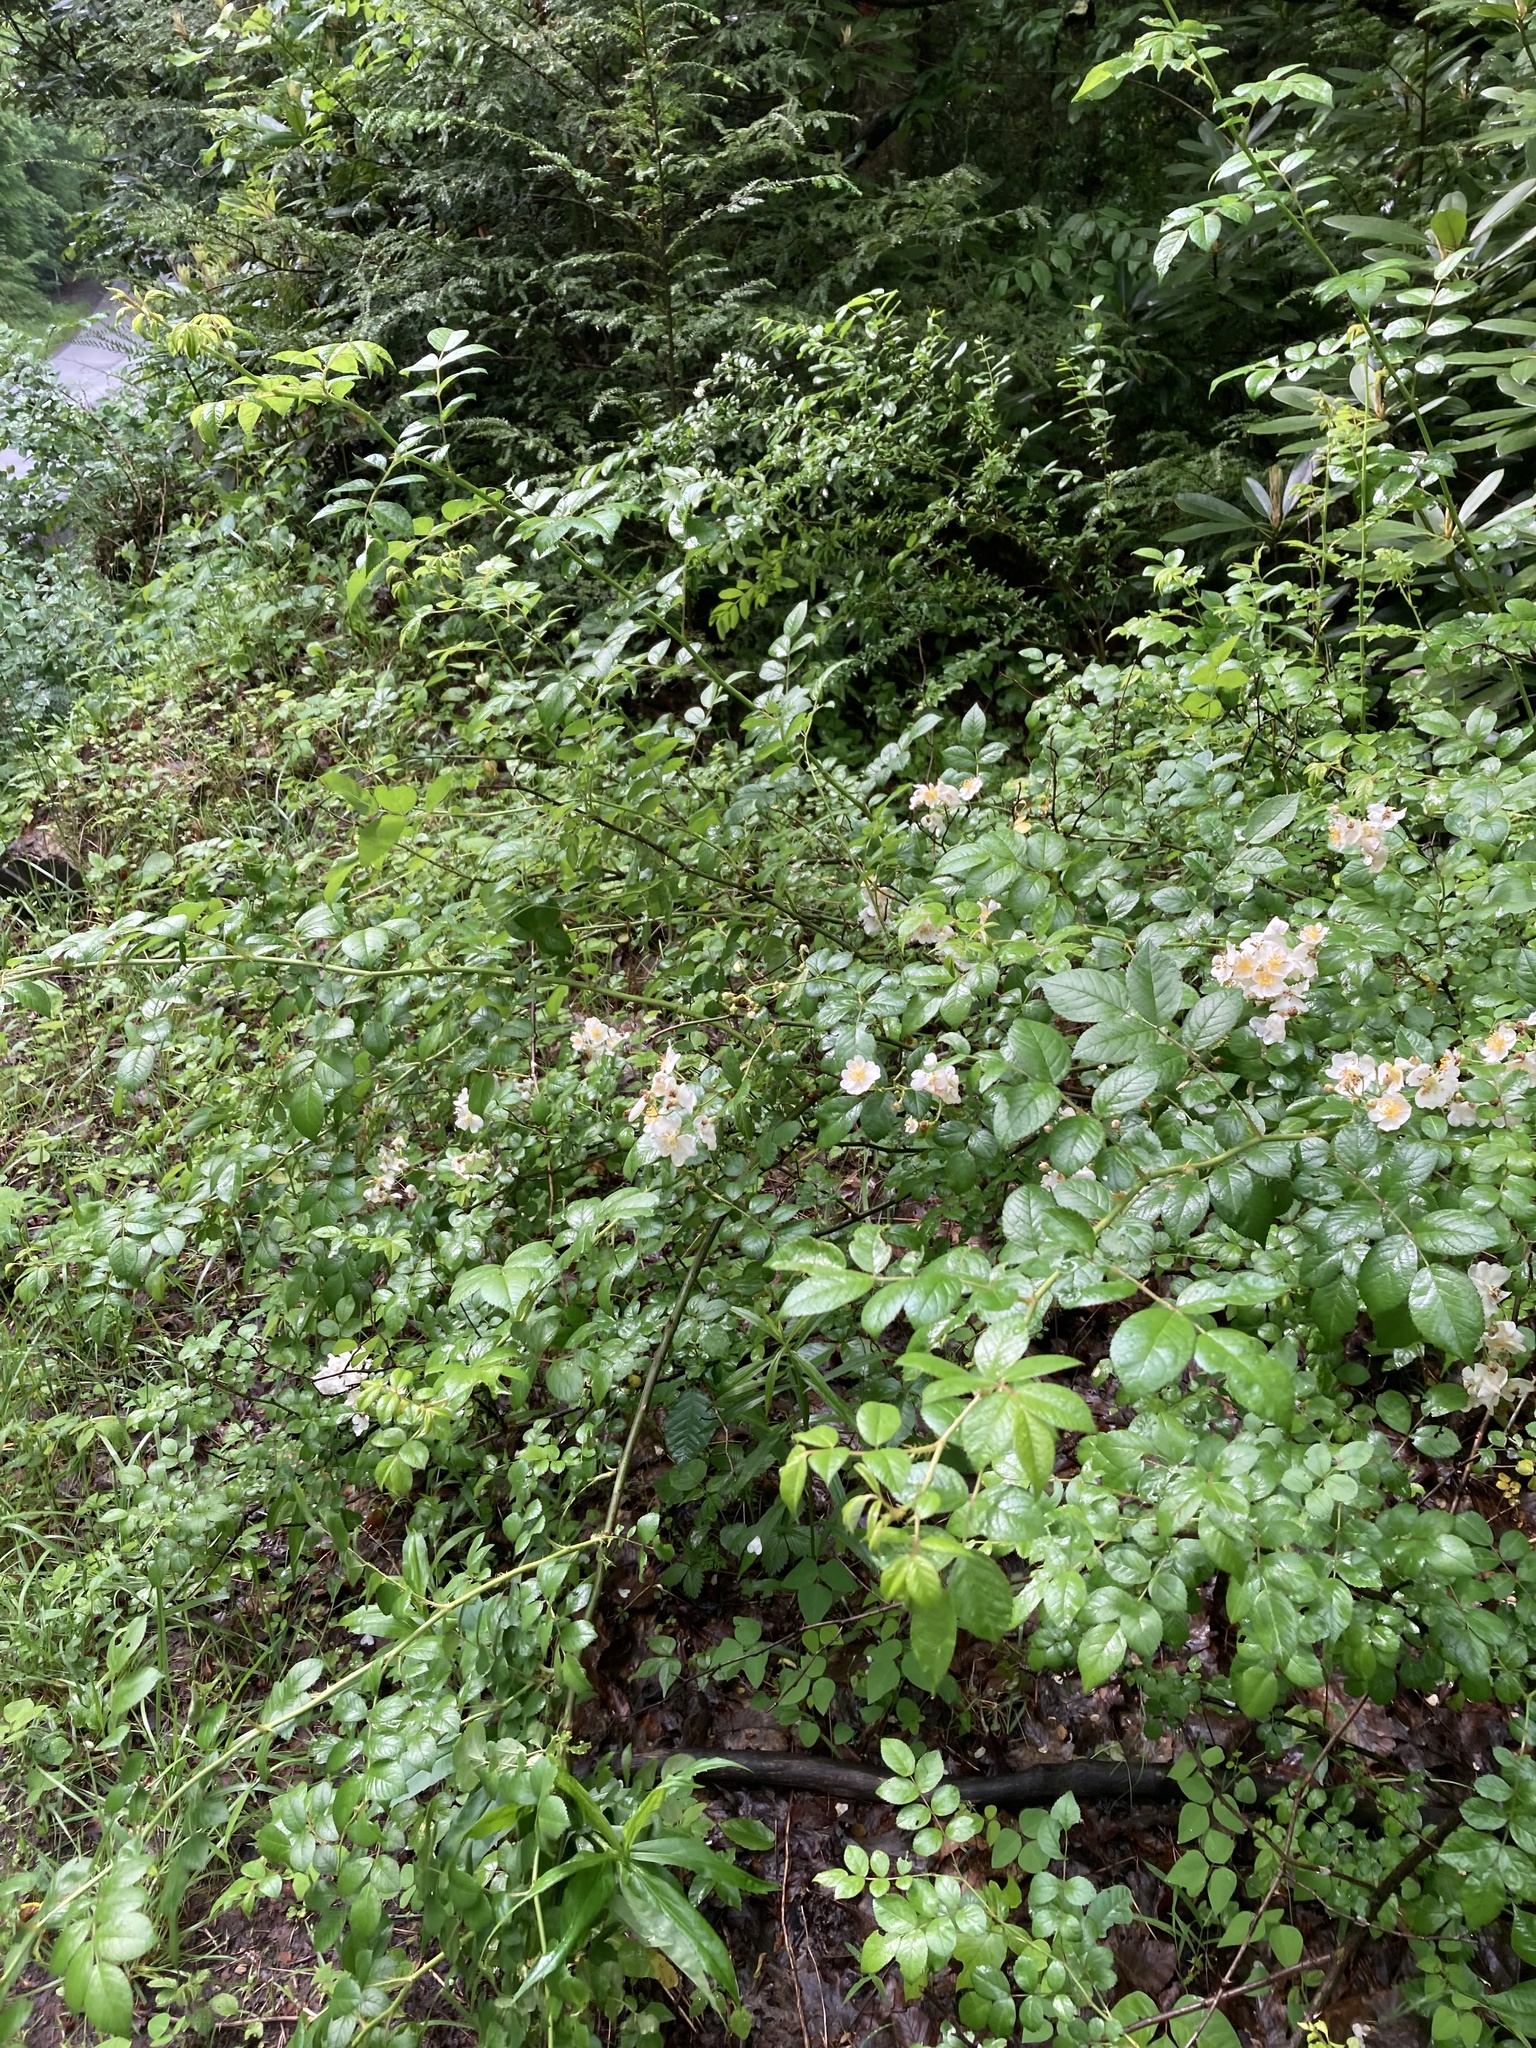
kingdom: Plantae
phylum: Tracheophyta
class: Magnoliopsida
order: Rosales
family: Rosaceae
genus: Rosa
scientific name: Rosa multiflora
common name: Multiflora rose
